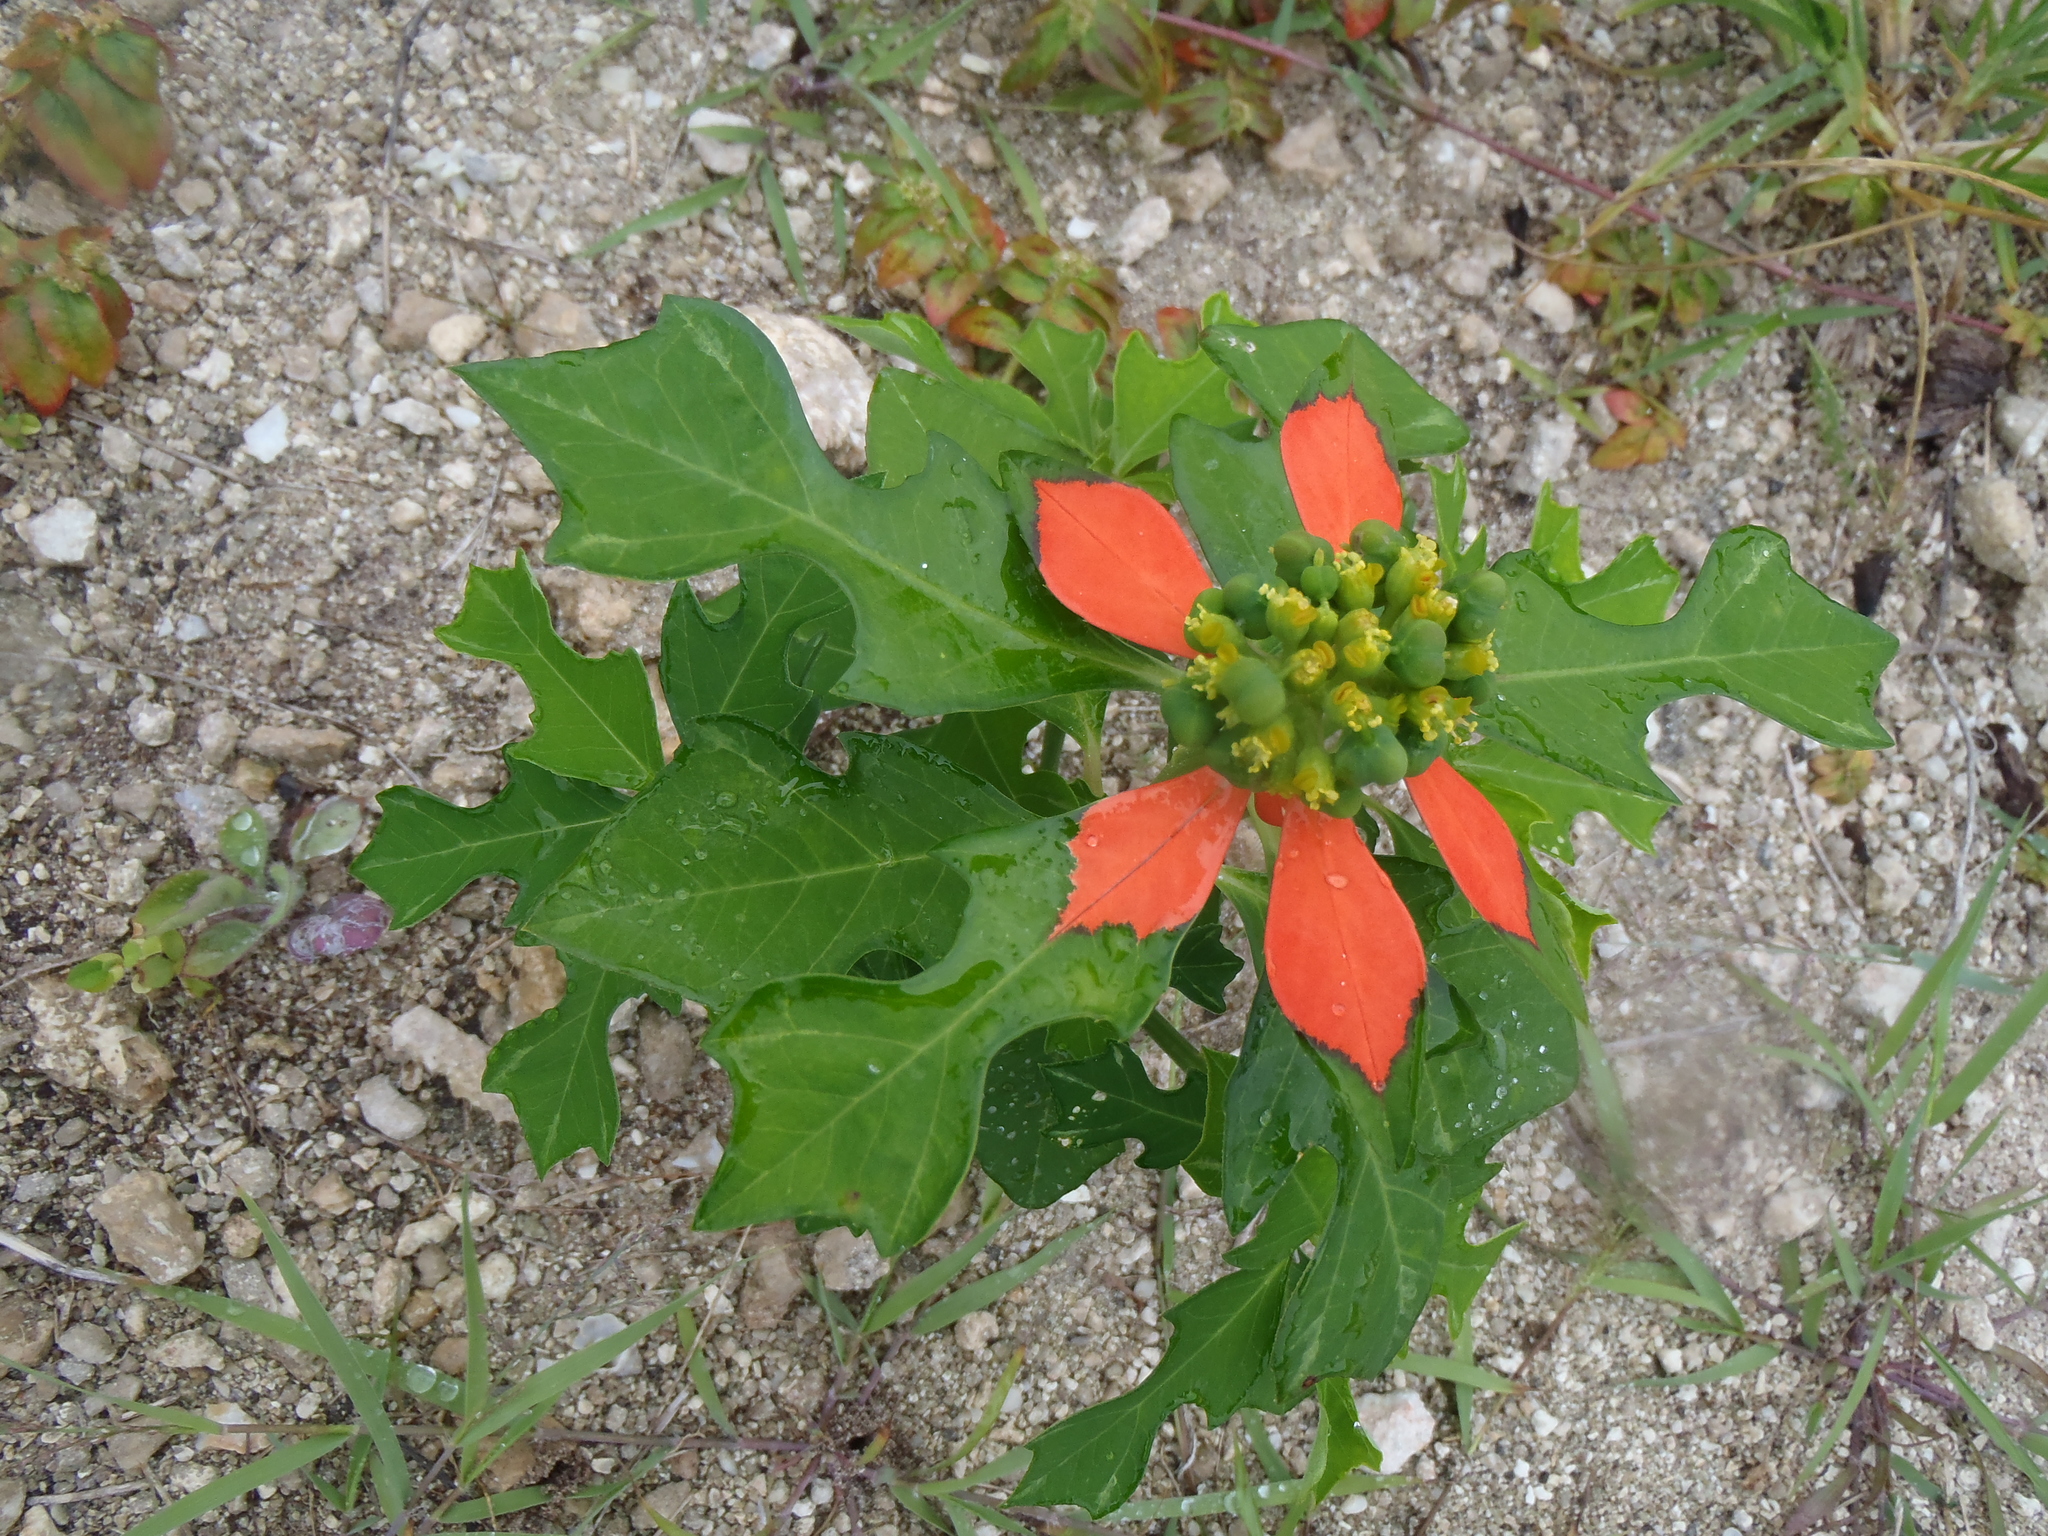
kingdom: Plantae
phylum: Tracheophyta
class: Magnoliopsida
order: Malpighiales
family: Euphorbiaceae
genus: Euphorbia
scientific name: Euphorbia heterophylla
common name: Mexican fireplant
